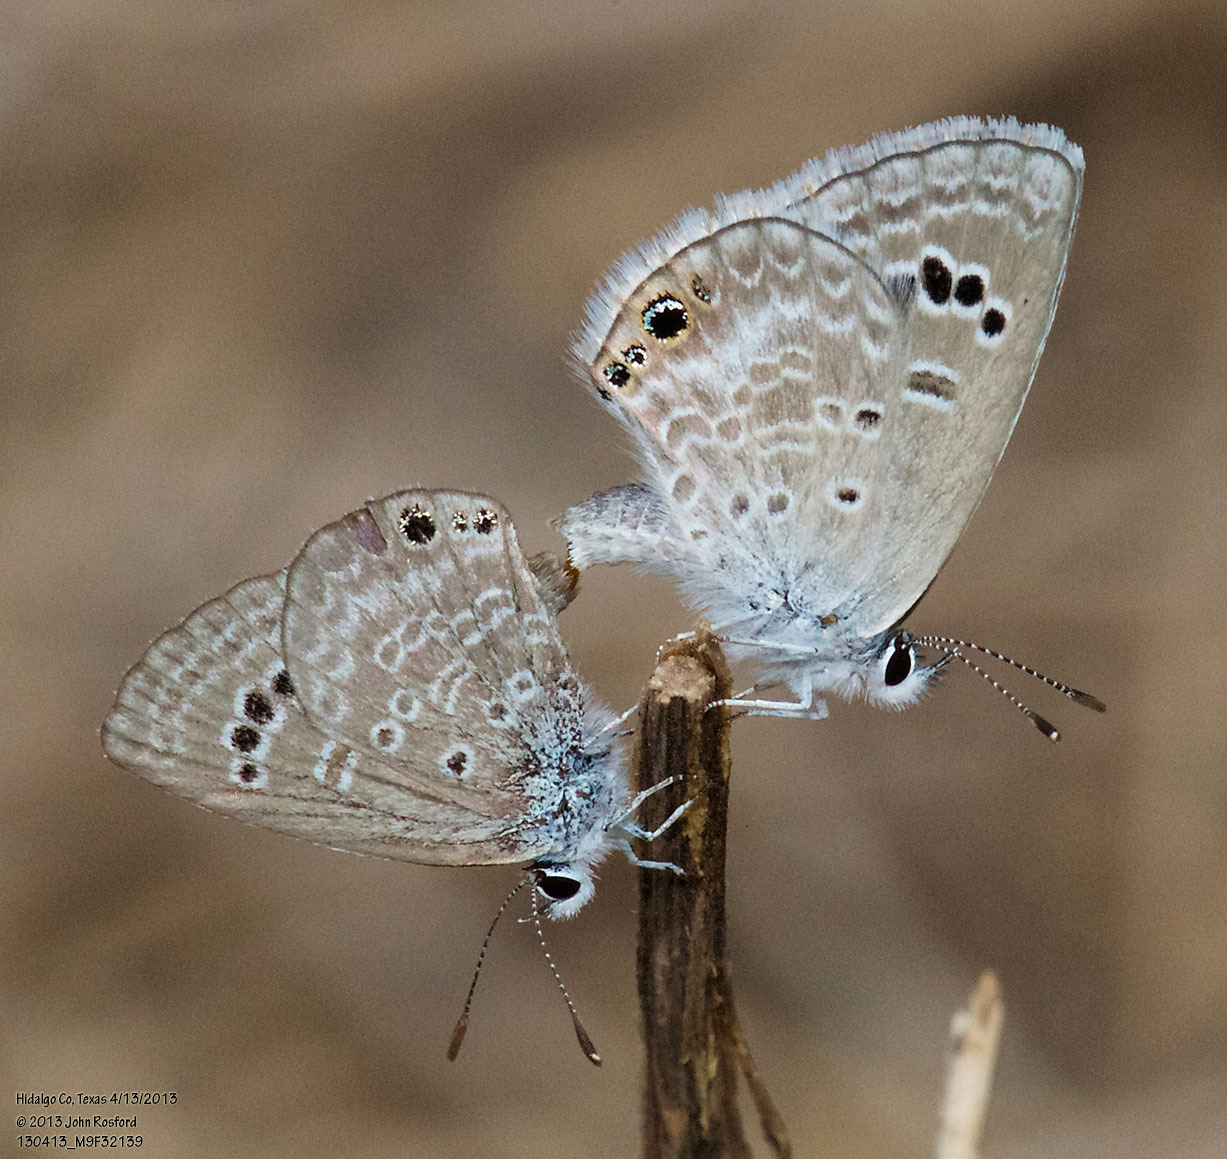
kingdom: Animalia
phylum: Arthropoda
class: Insecta
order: Lepidoptera
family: Lycaenidae
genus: Echinargus
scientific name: Echinargus isola
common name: Reakirt's blue
